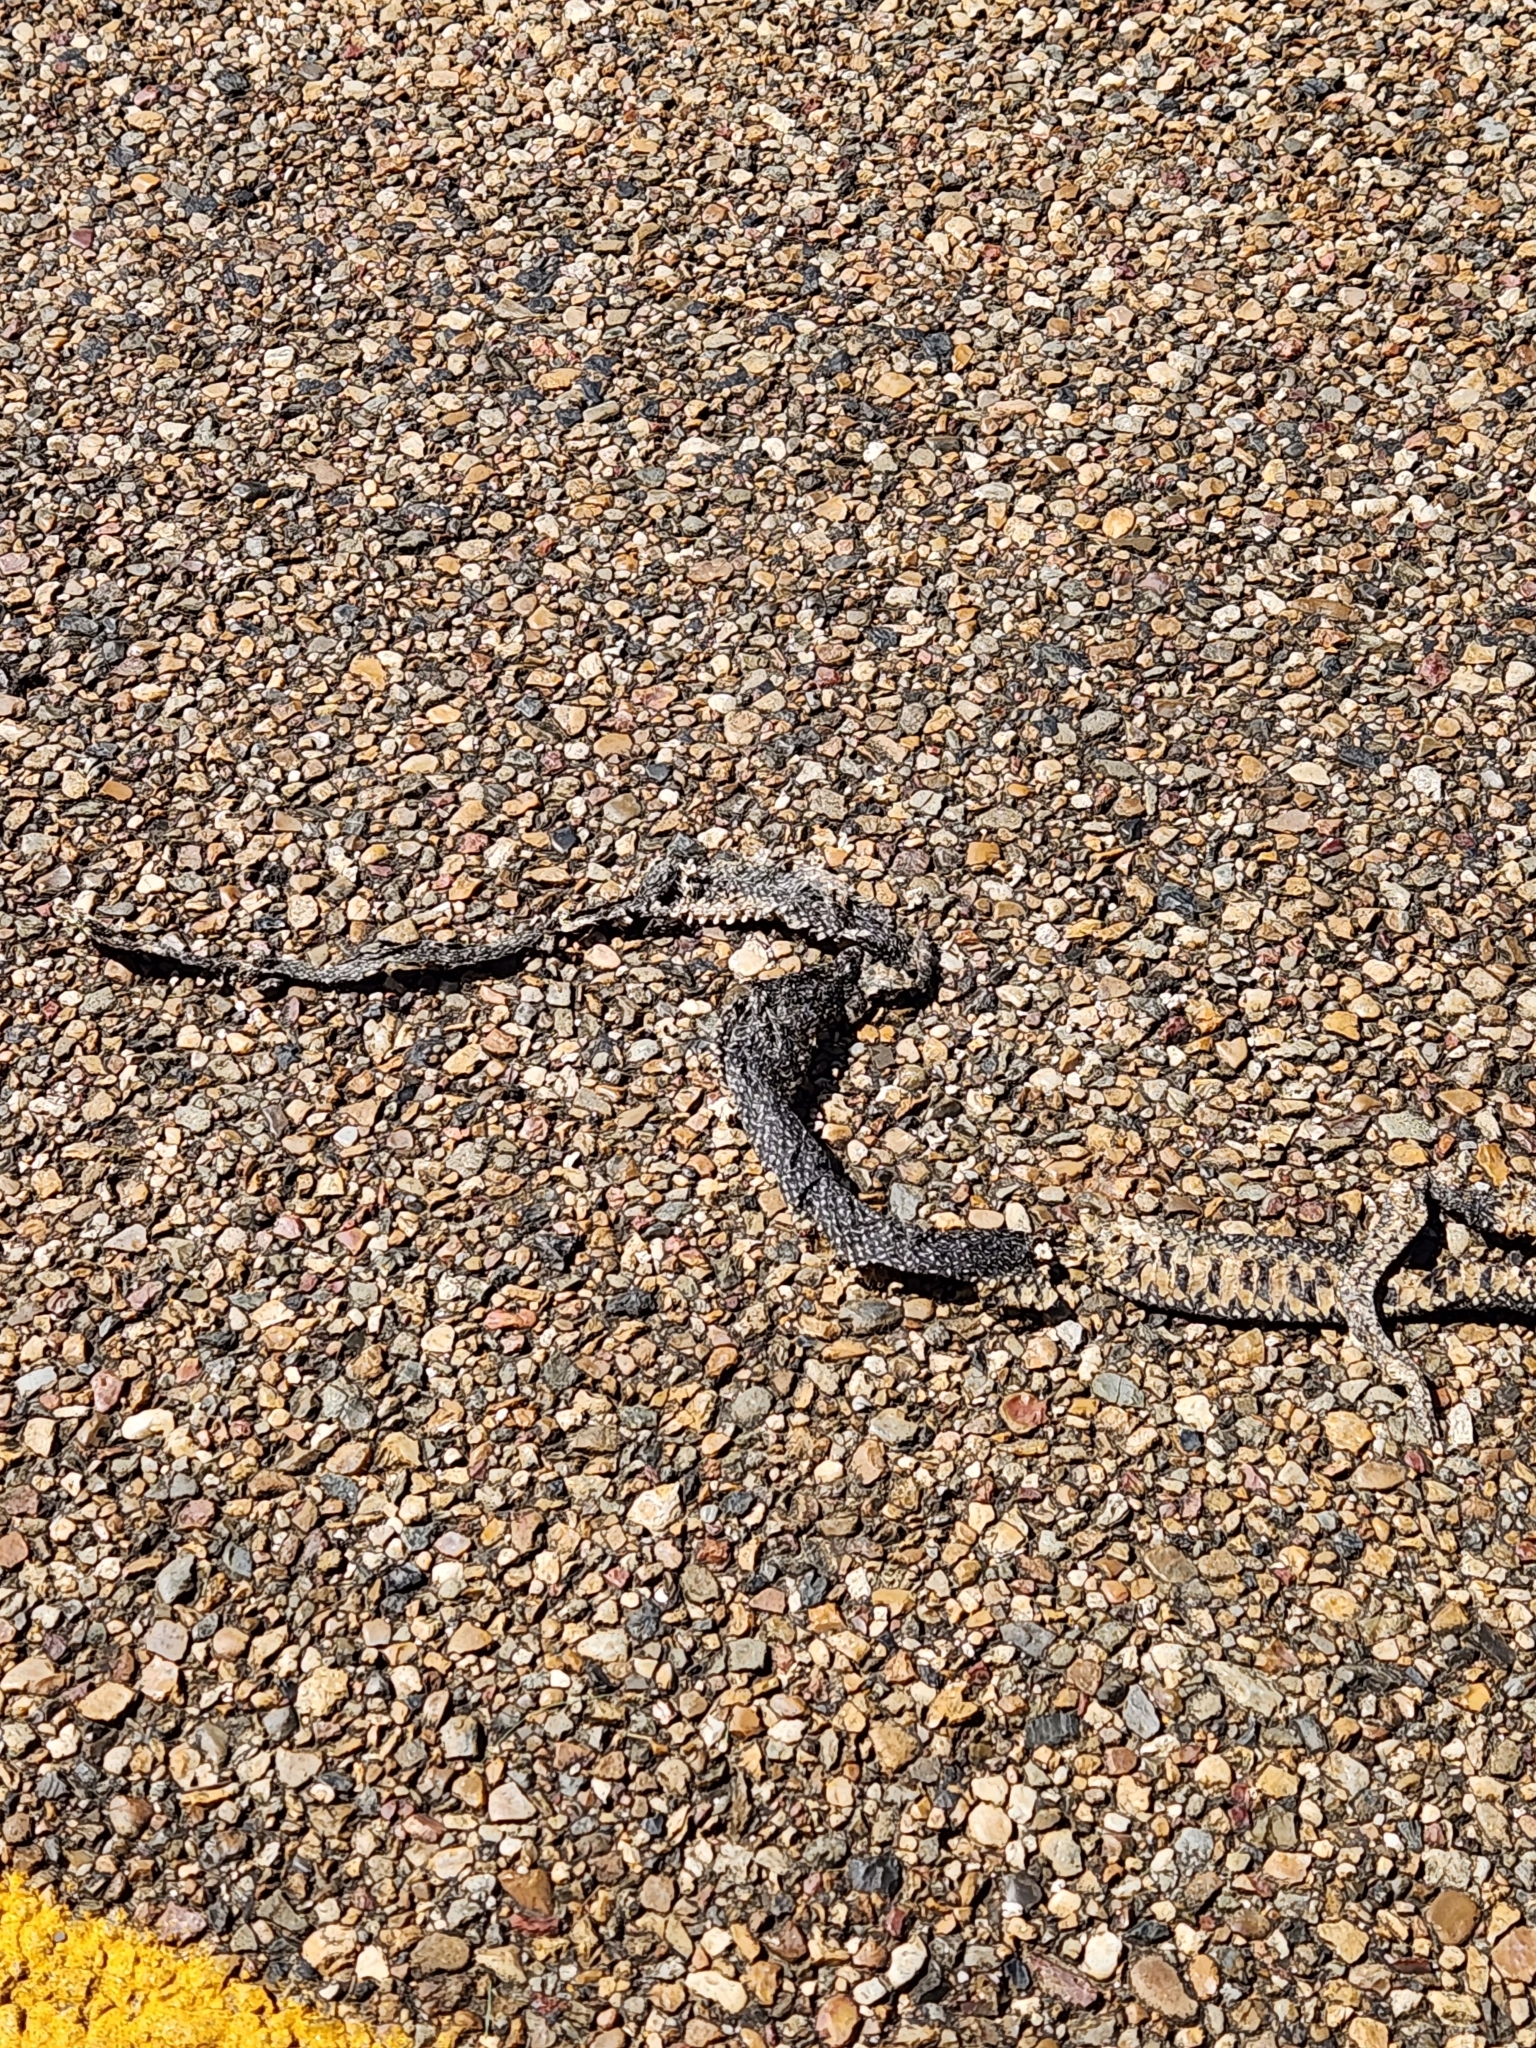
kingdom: Animalia
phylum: Chordata
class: Squamata
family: Colubridae
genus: Lampropeltis
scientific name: Lampropeltis holbrooki
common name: Speckled kingsnake
